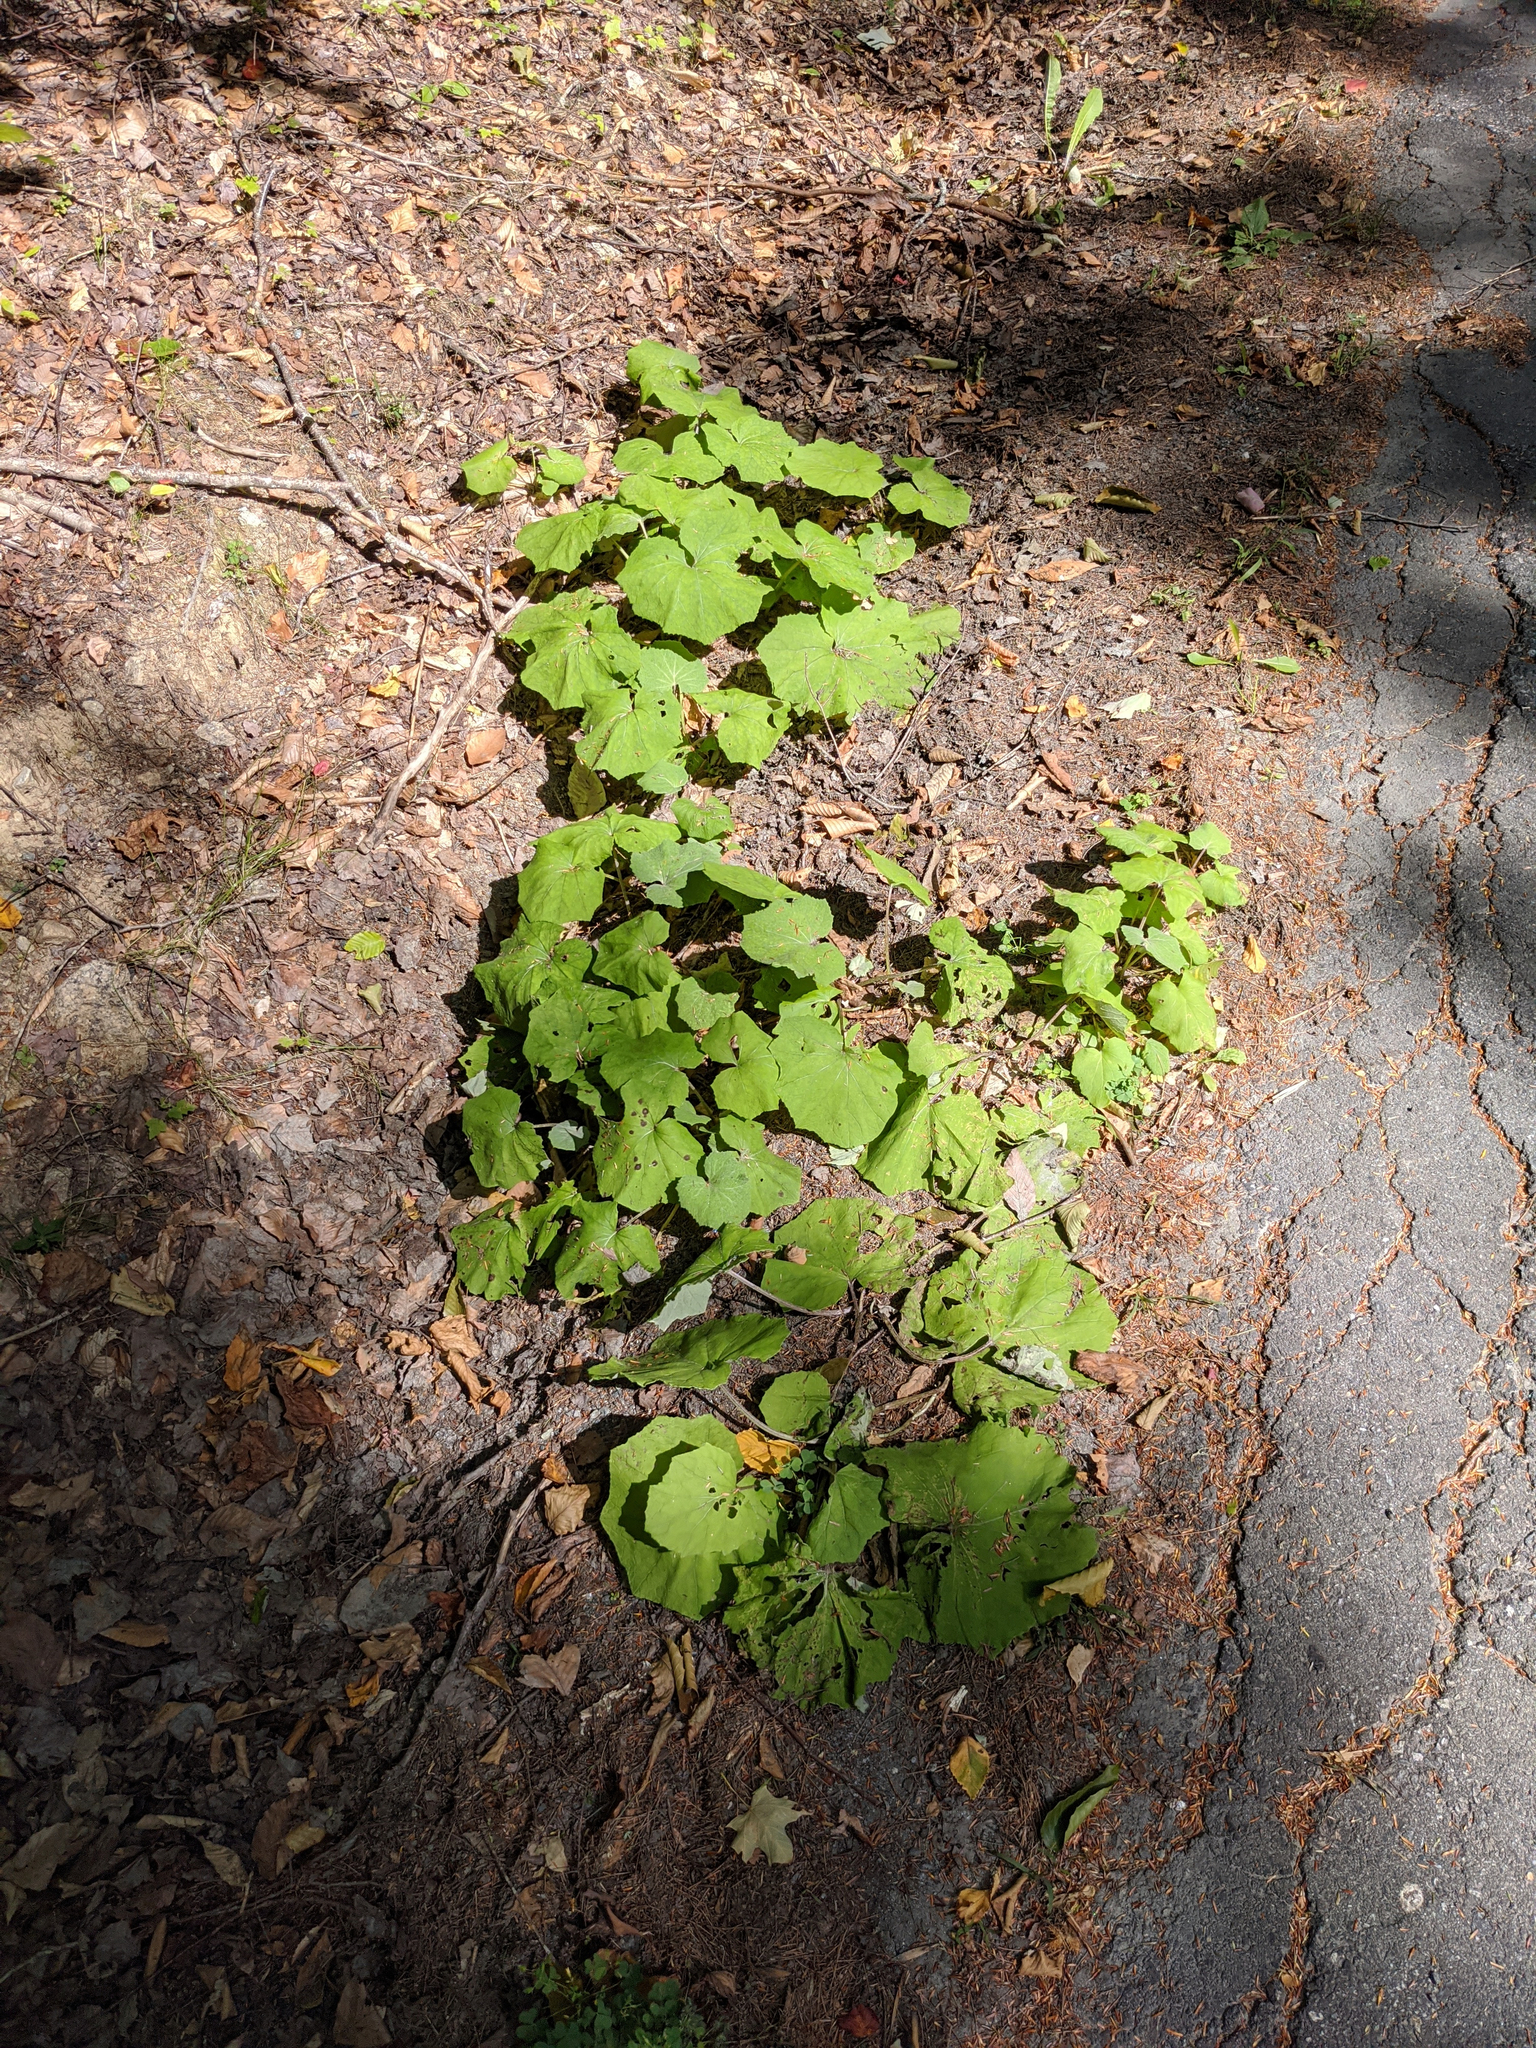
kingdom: Plantae
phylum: Tracheophyta
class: Magnoliopsida
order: Asterales
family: Asteraceae
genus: Tussilago
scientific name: Tussilago farfara
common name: Coltsfoot
